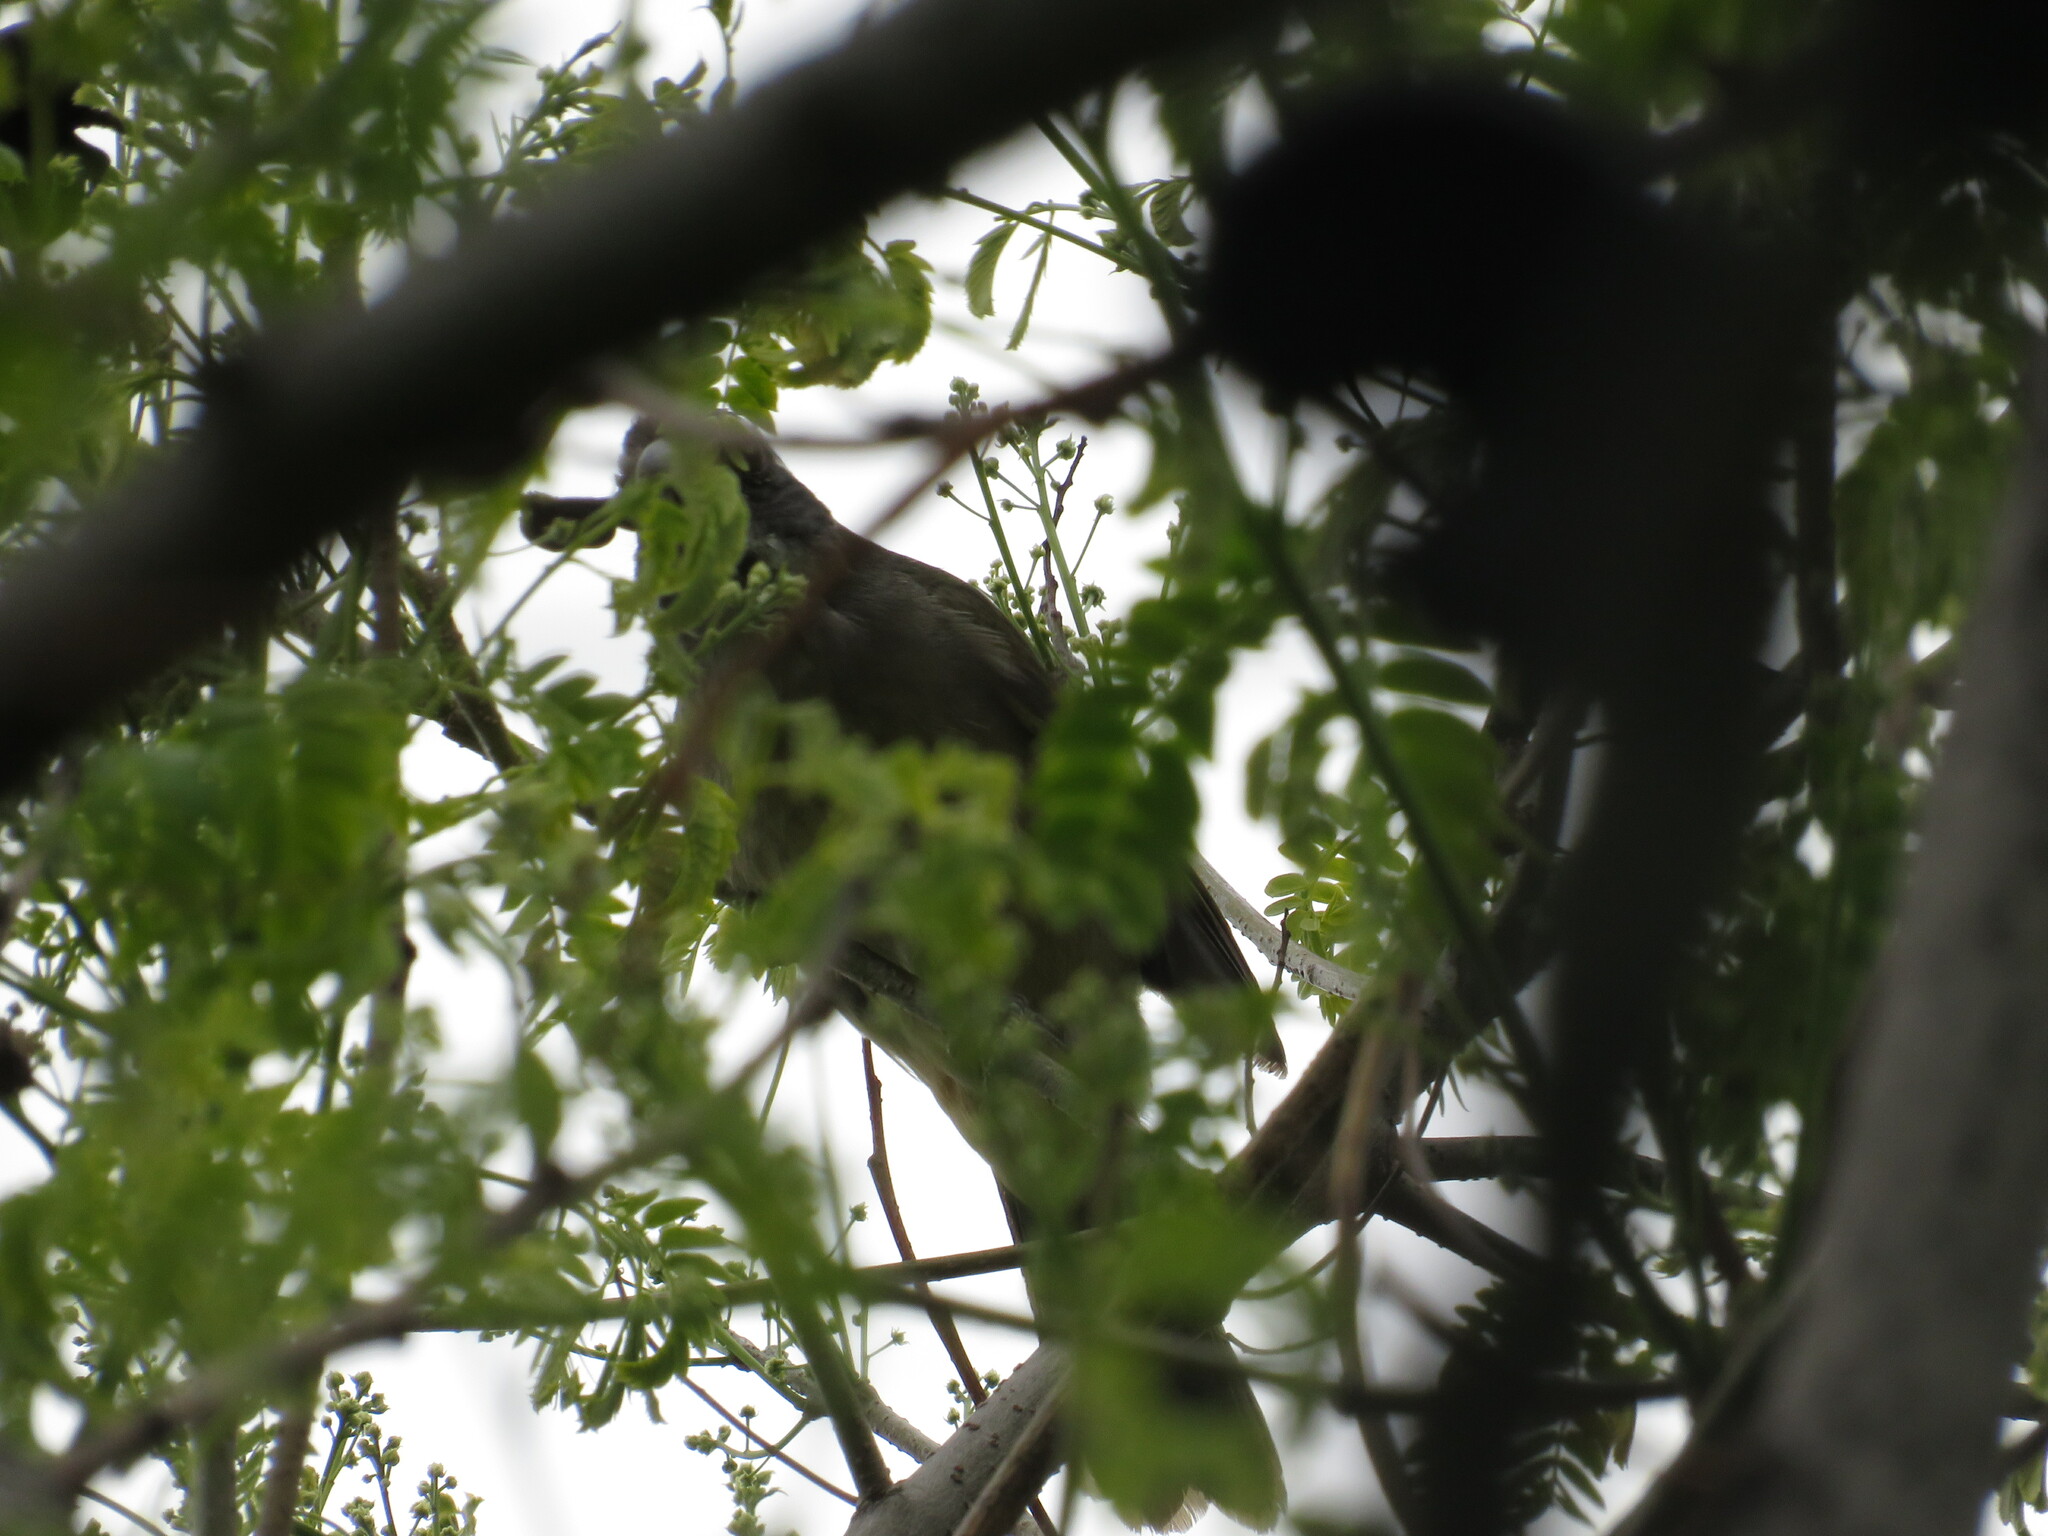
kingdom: Animalia
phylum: Chordata
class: Aves
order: Passeriformes
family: Thraupidae
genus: Saltator
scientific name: Saltator similis
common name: Green-winged saltator
